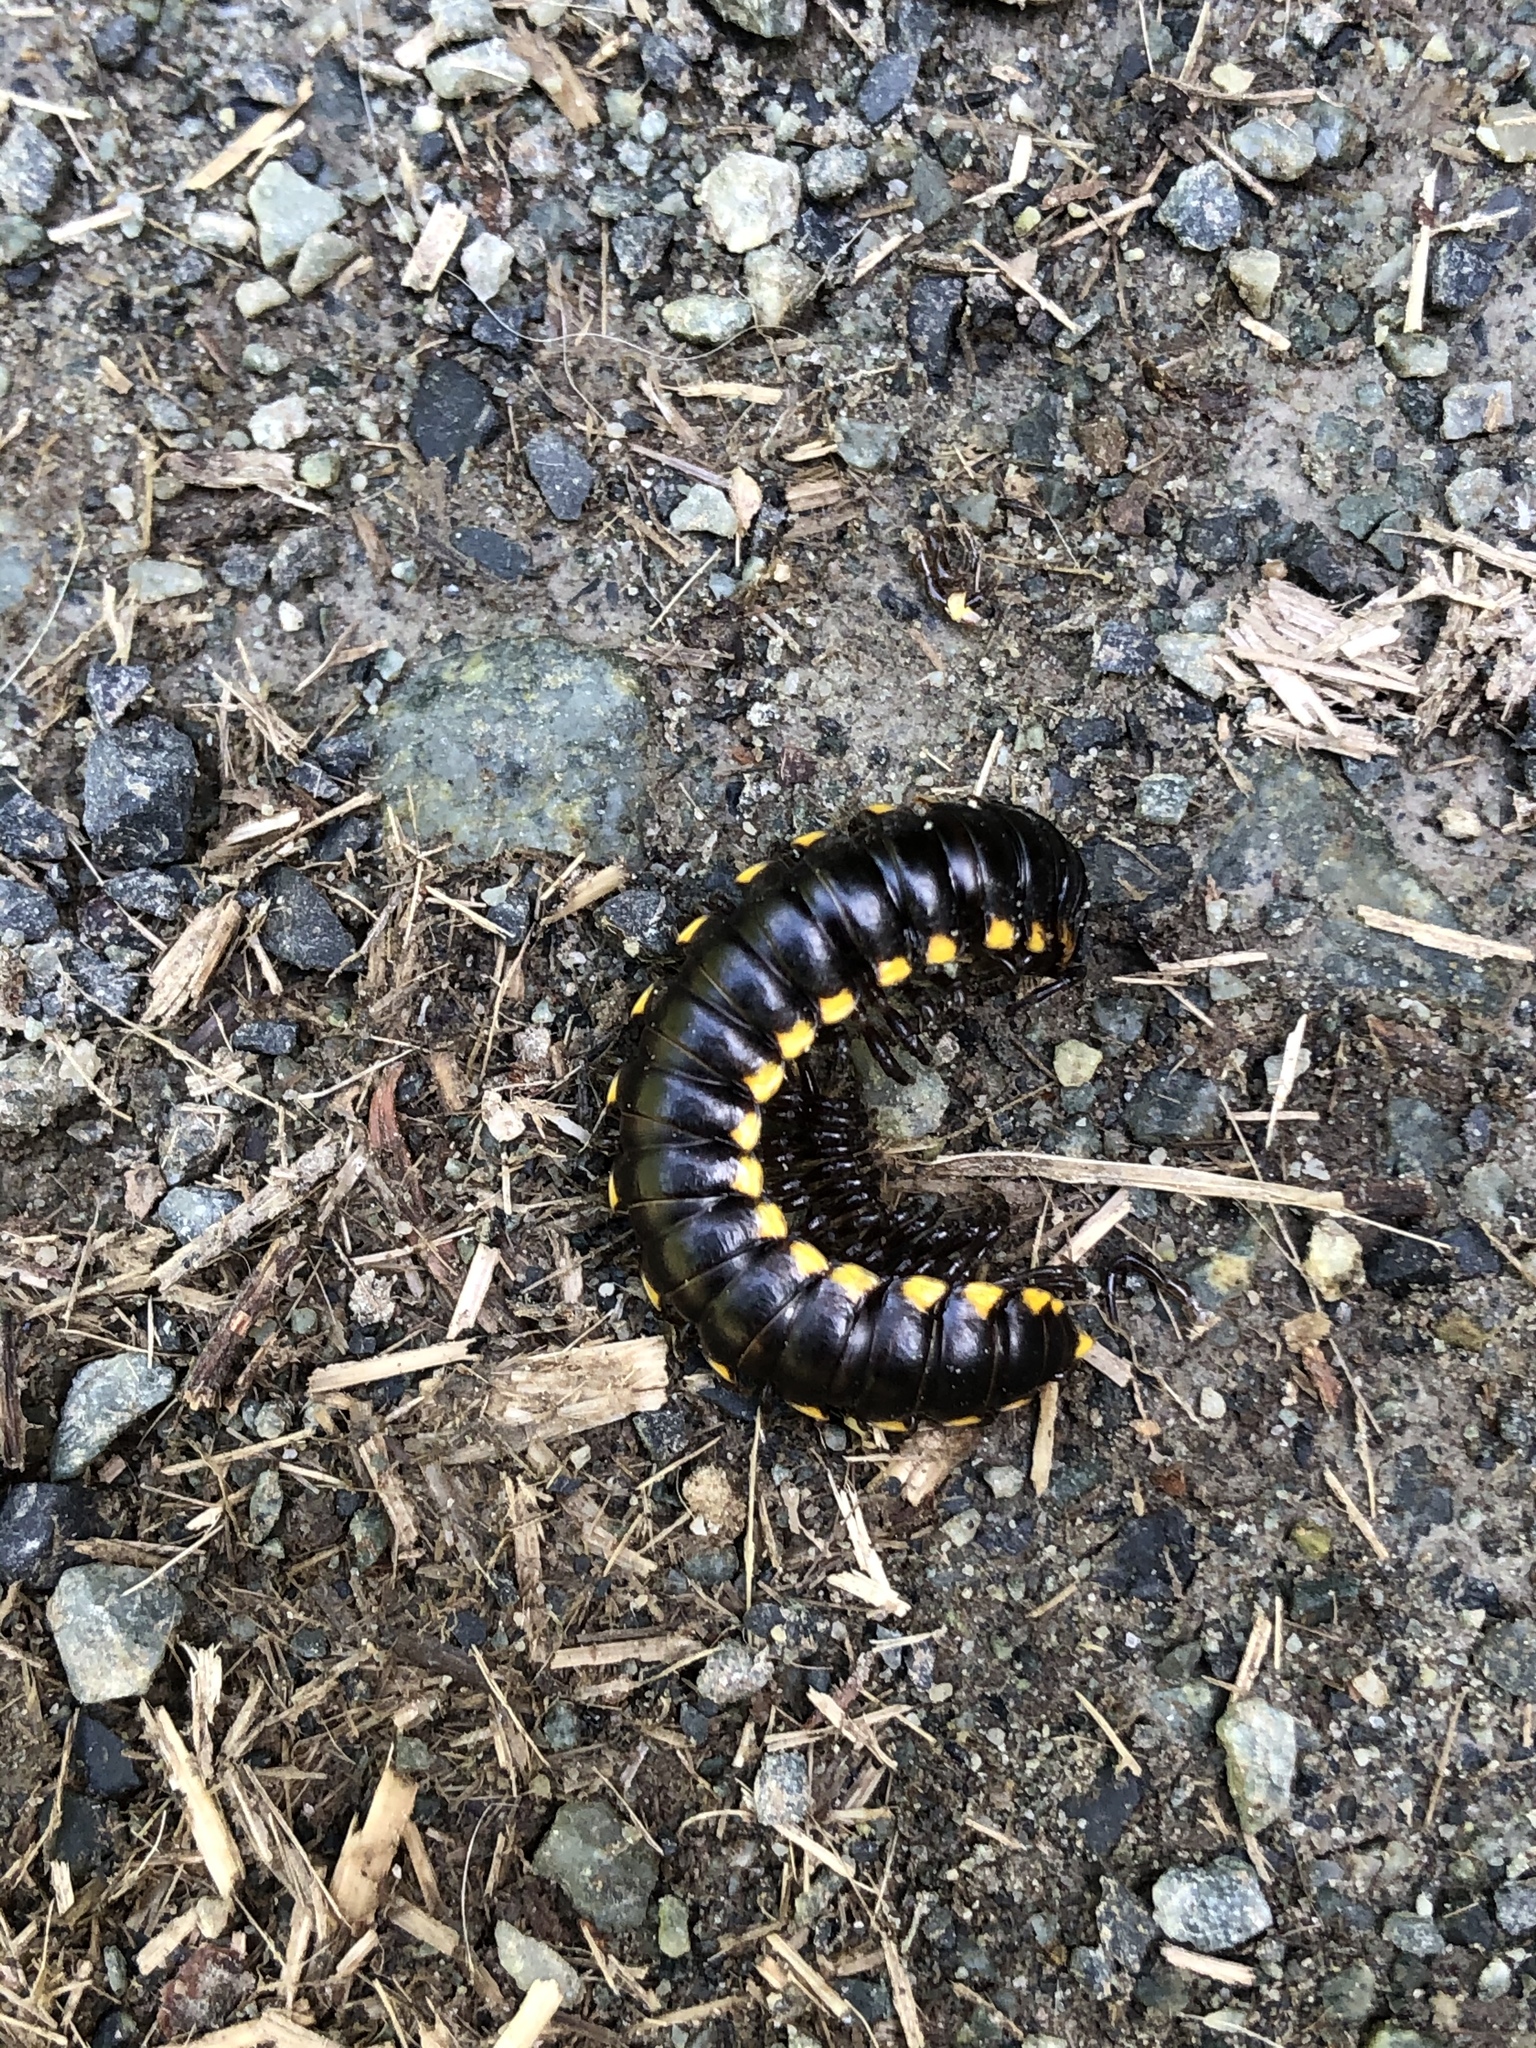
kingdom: Animalia
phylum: Arthropoda
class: Diplopoda
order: Polydesmida
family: Xystodesmidae
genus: Harpaphe
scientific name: Harpaphe haydeniana
